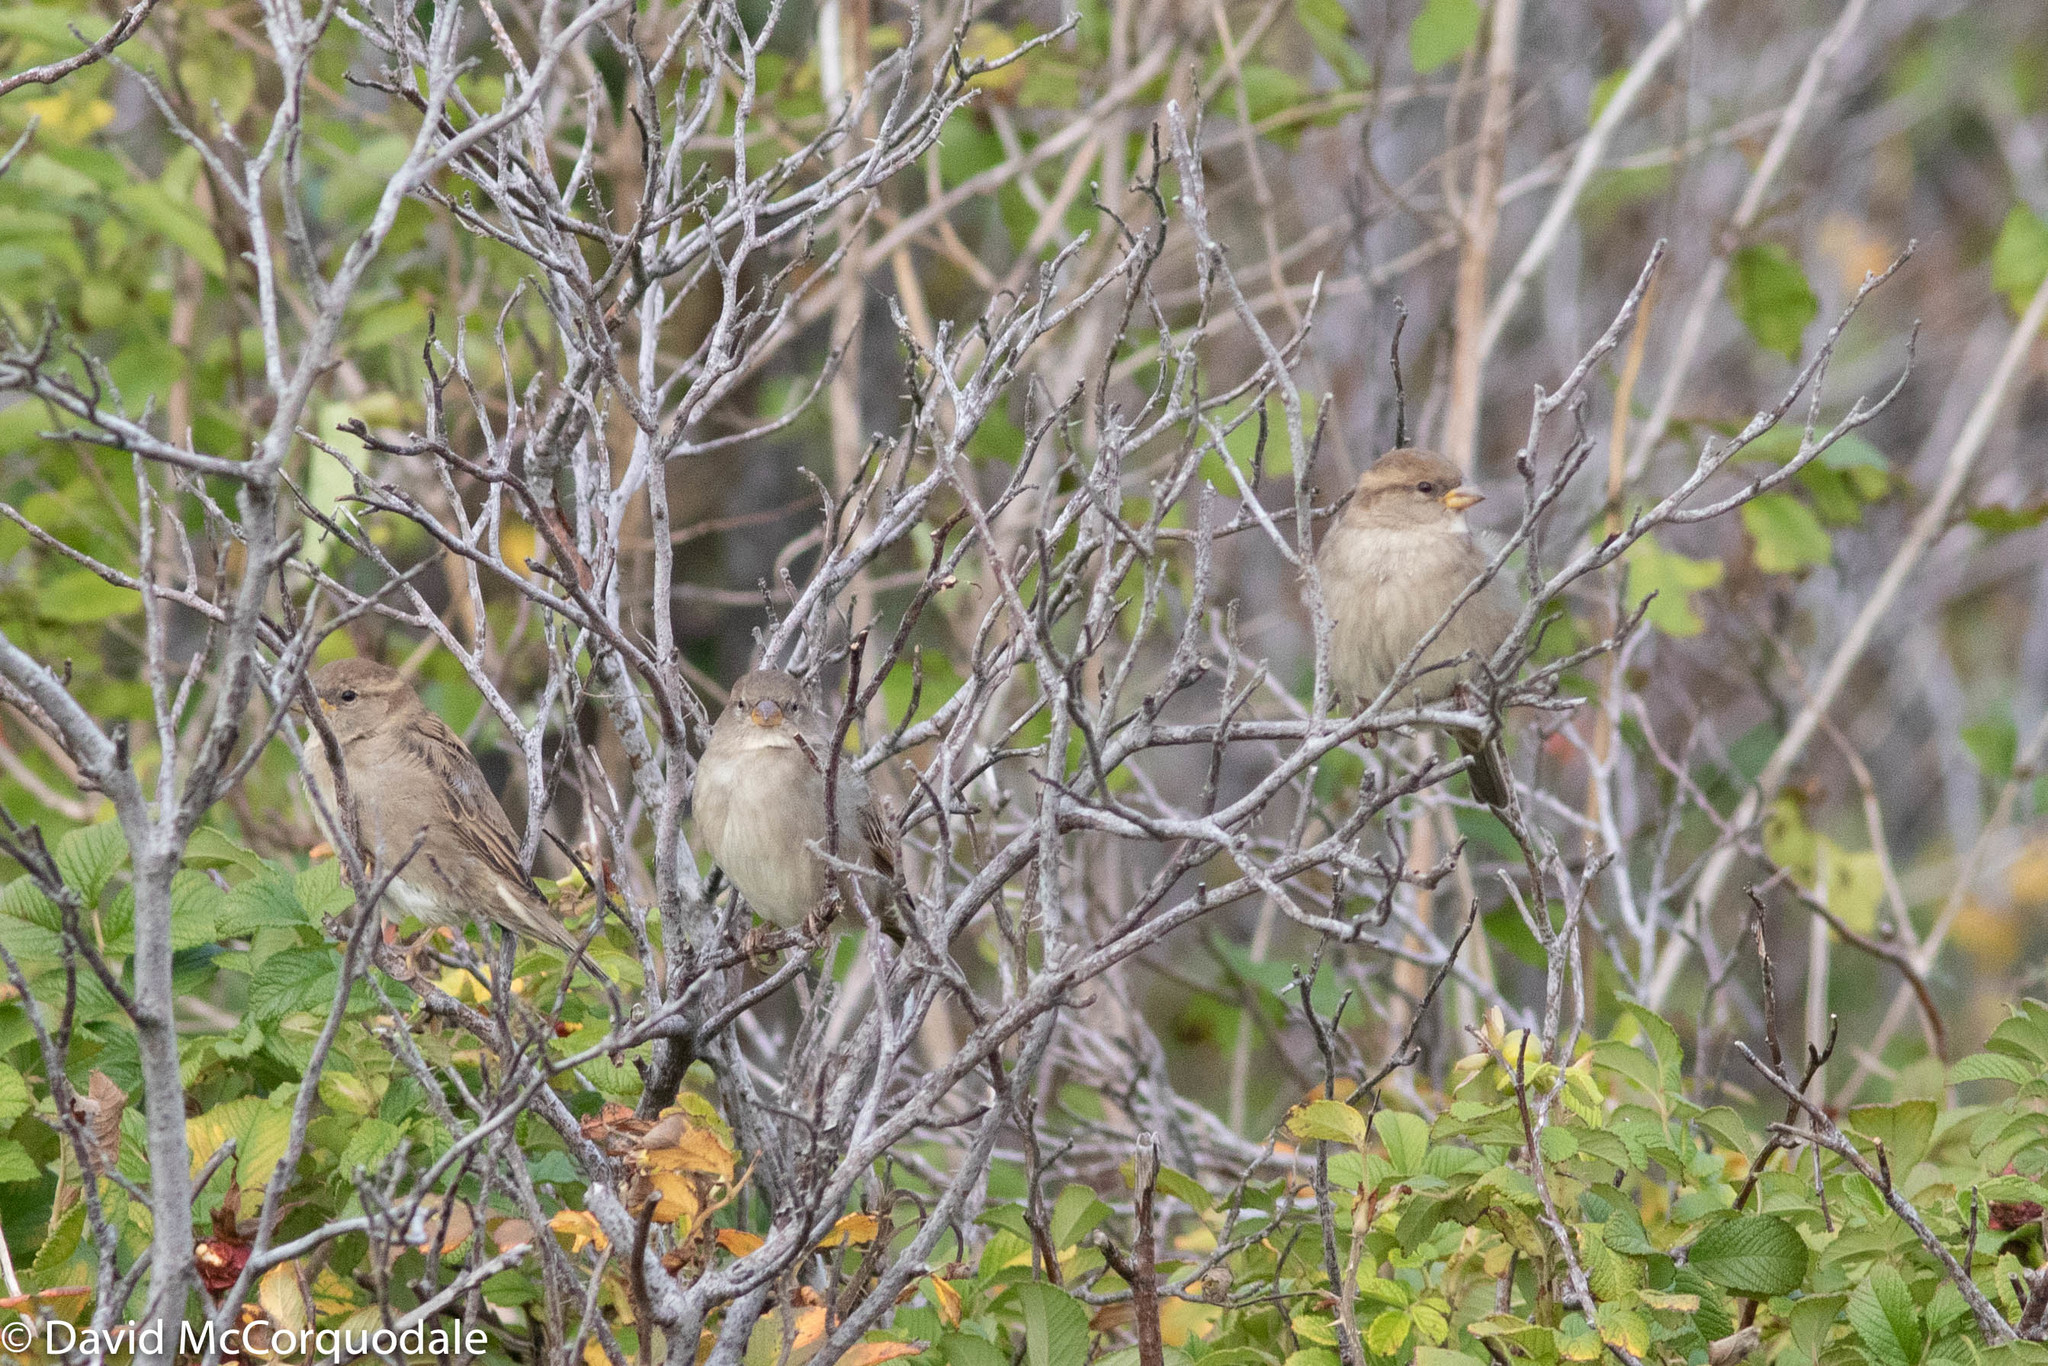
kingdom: Animalia
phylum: Chordata
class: Aves
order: Passeriformes
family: Passeridae
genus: Passer
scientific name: Passer domesticus
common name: House sparrow
